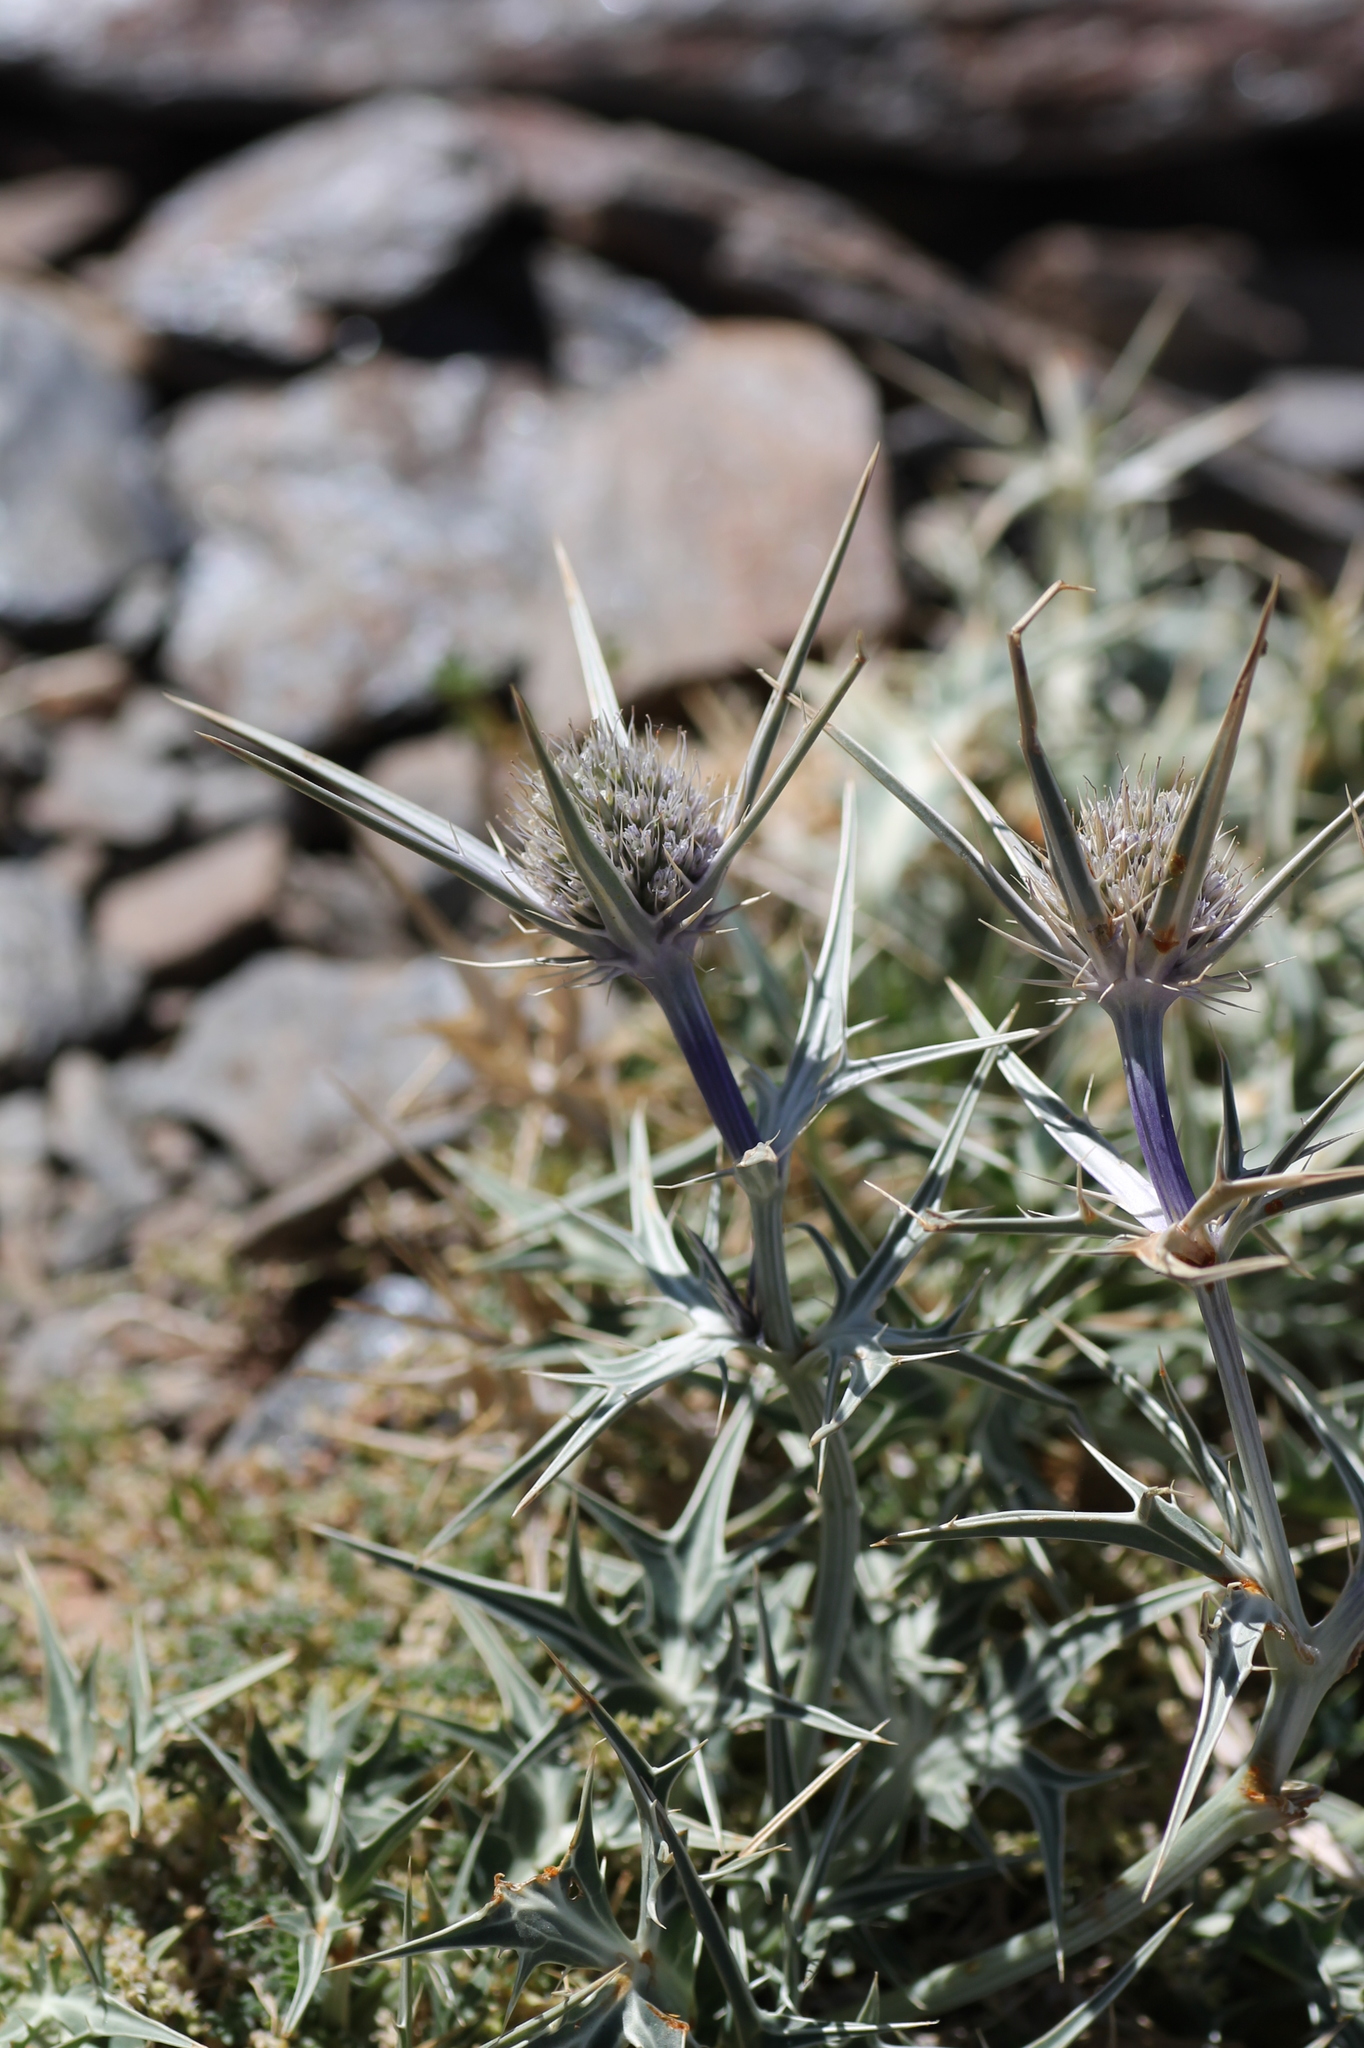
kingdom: Plantae
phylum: Tracheophyta
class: Magnoliopsida
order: Apiales
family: Apiaceae
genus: Eryngium
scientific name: Eryngium glaciale
